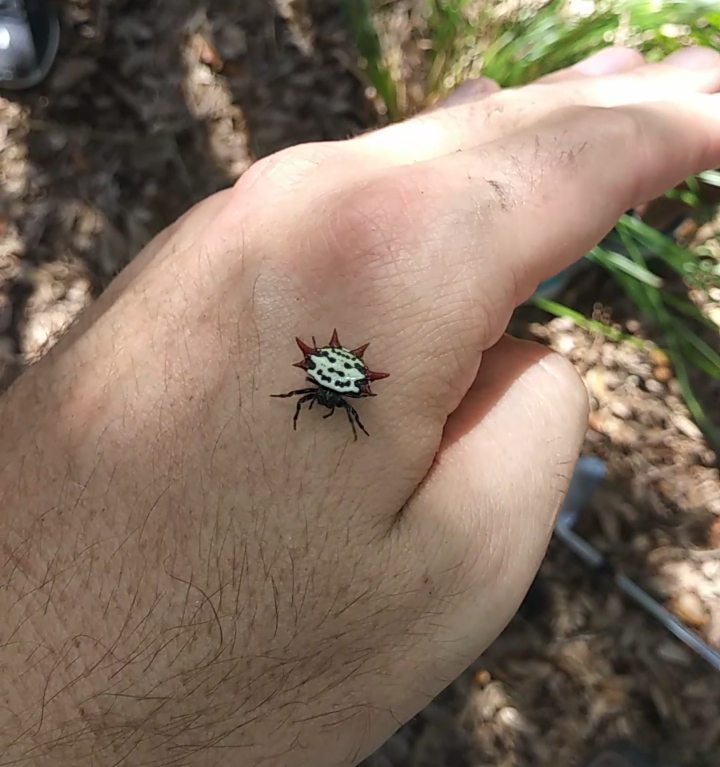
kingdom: Animalia
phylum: Arthropoda
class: Arachnida
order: Araneae
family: Araneidae
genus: Gasteracantha
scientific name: Gasteracantha cancriformis
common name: Orb weavers
